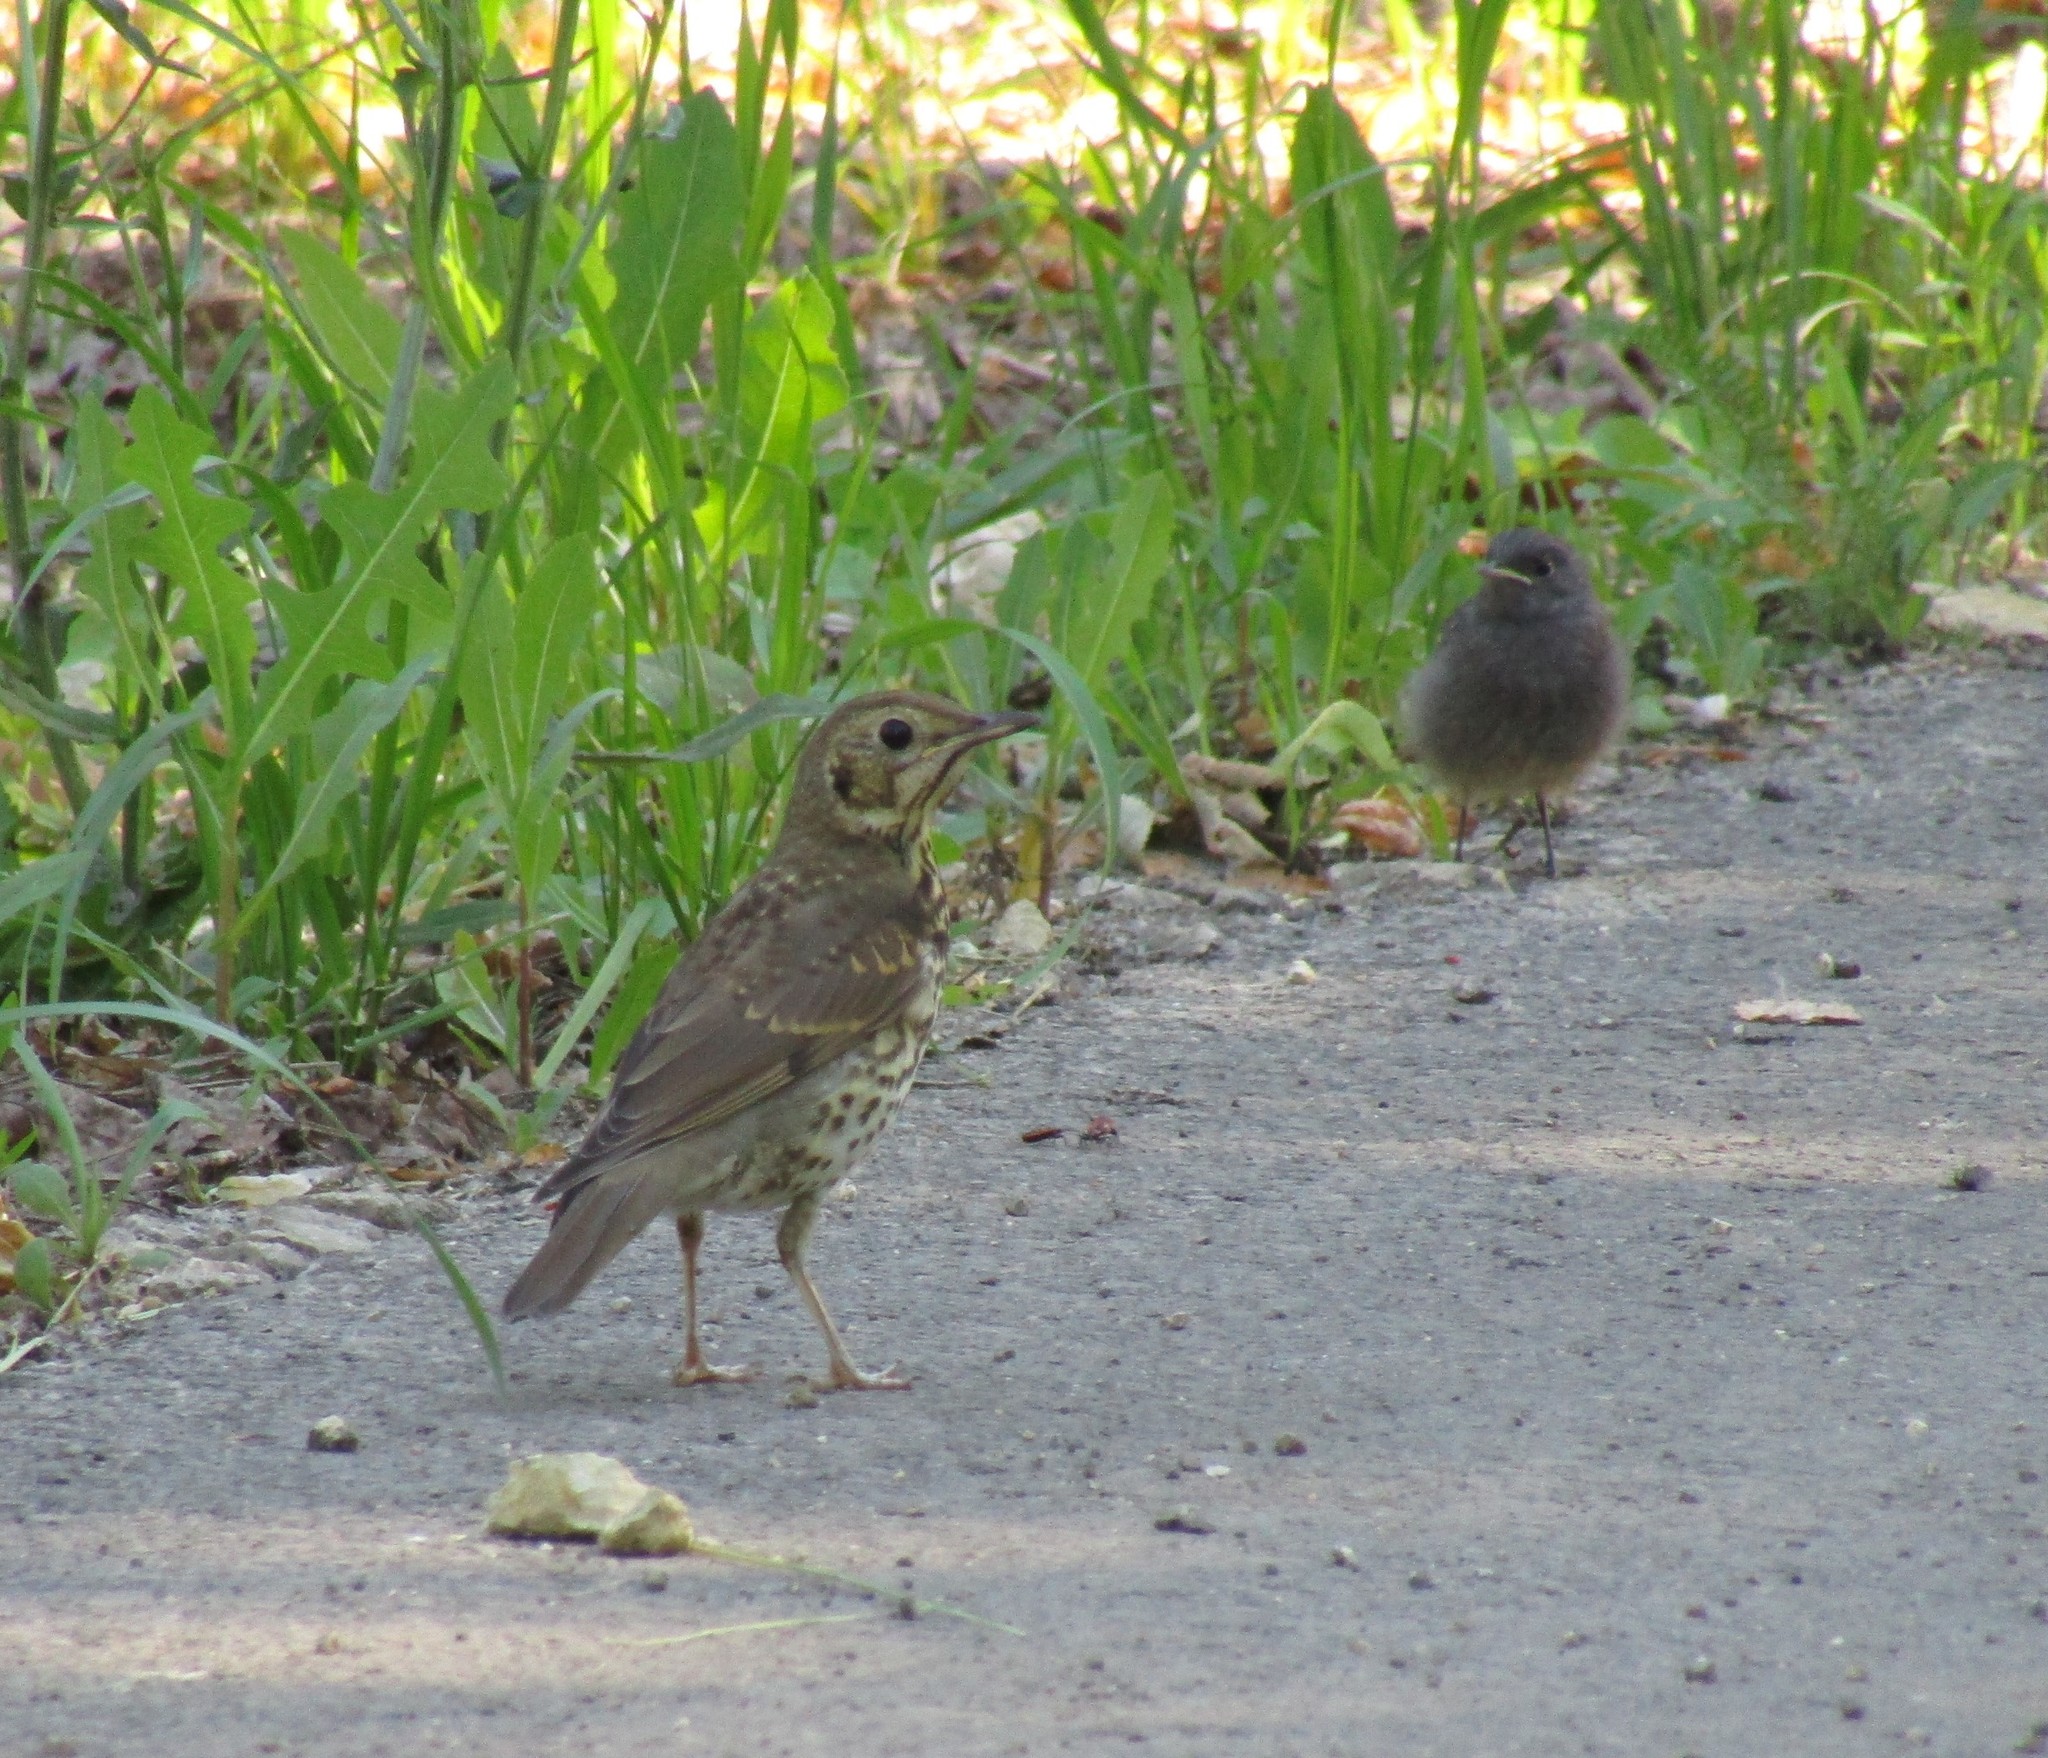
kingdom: Animalia
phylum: Chordata
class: Aves
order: Passeriformes
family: Turdidae
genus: Turdus
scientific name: Turdus philomelos
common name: Song thrush
